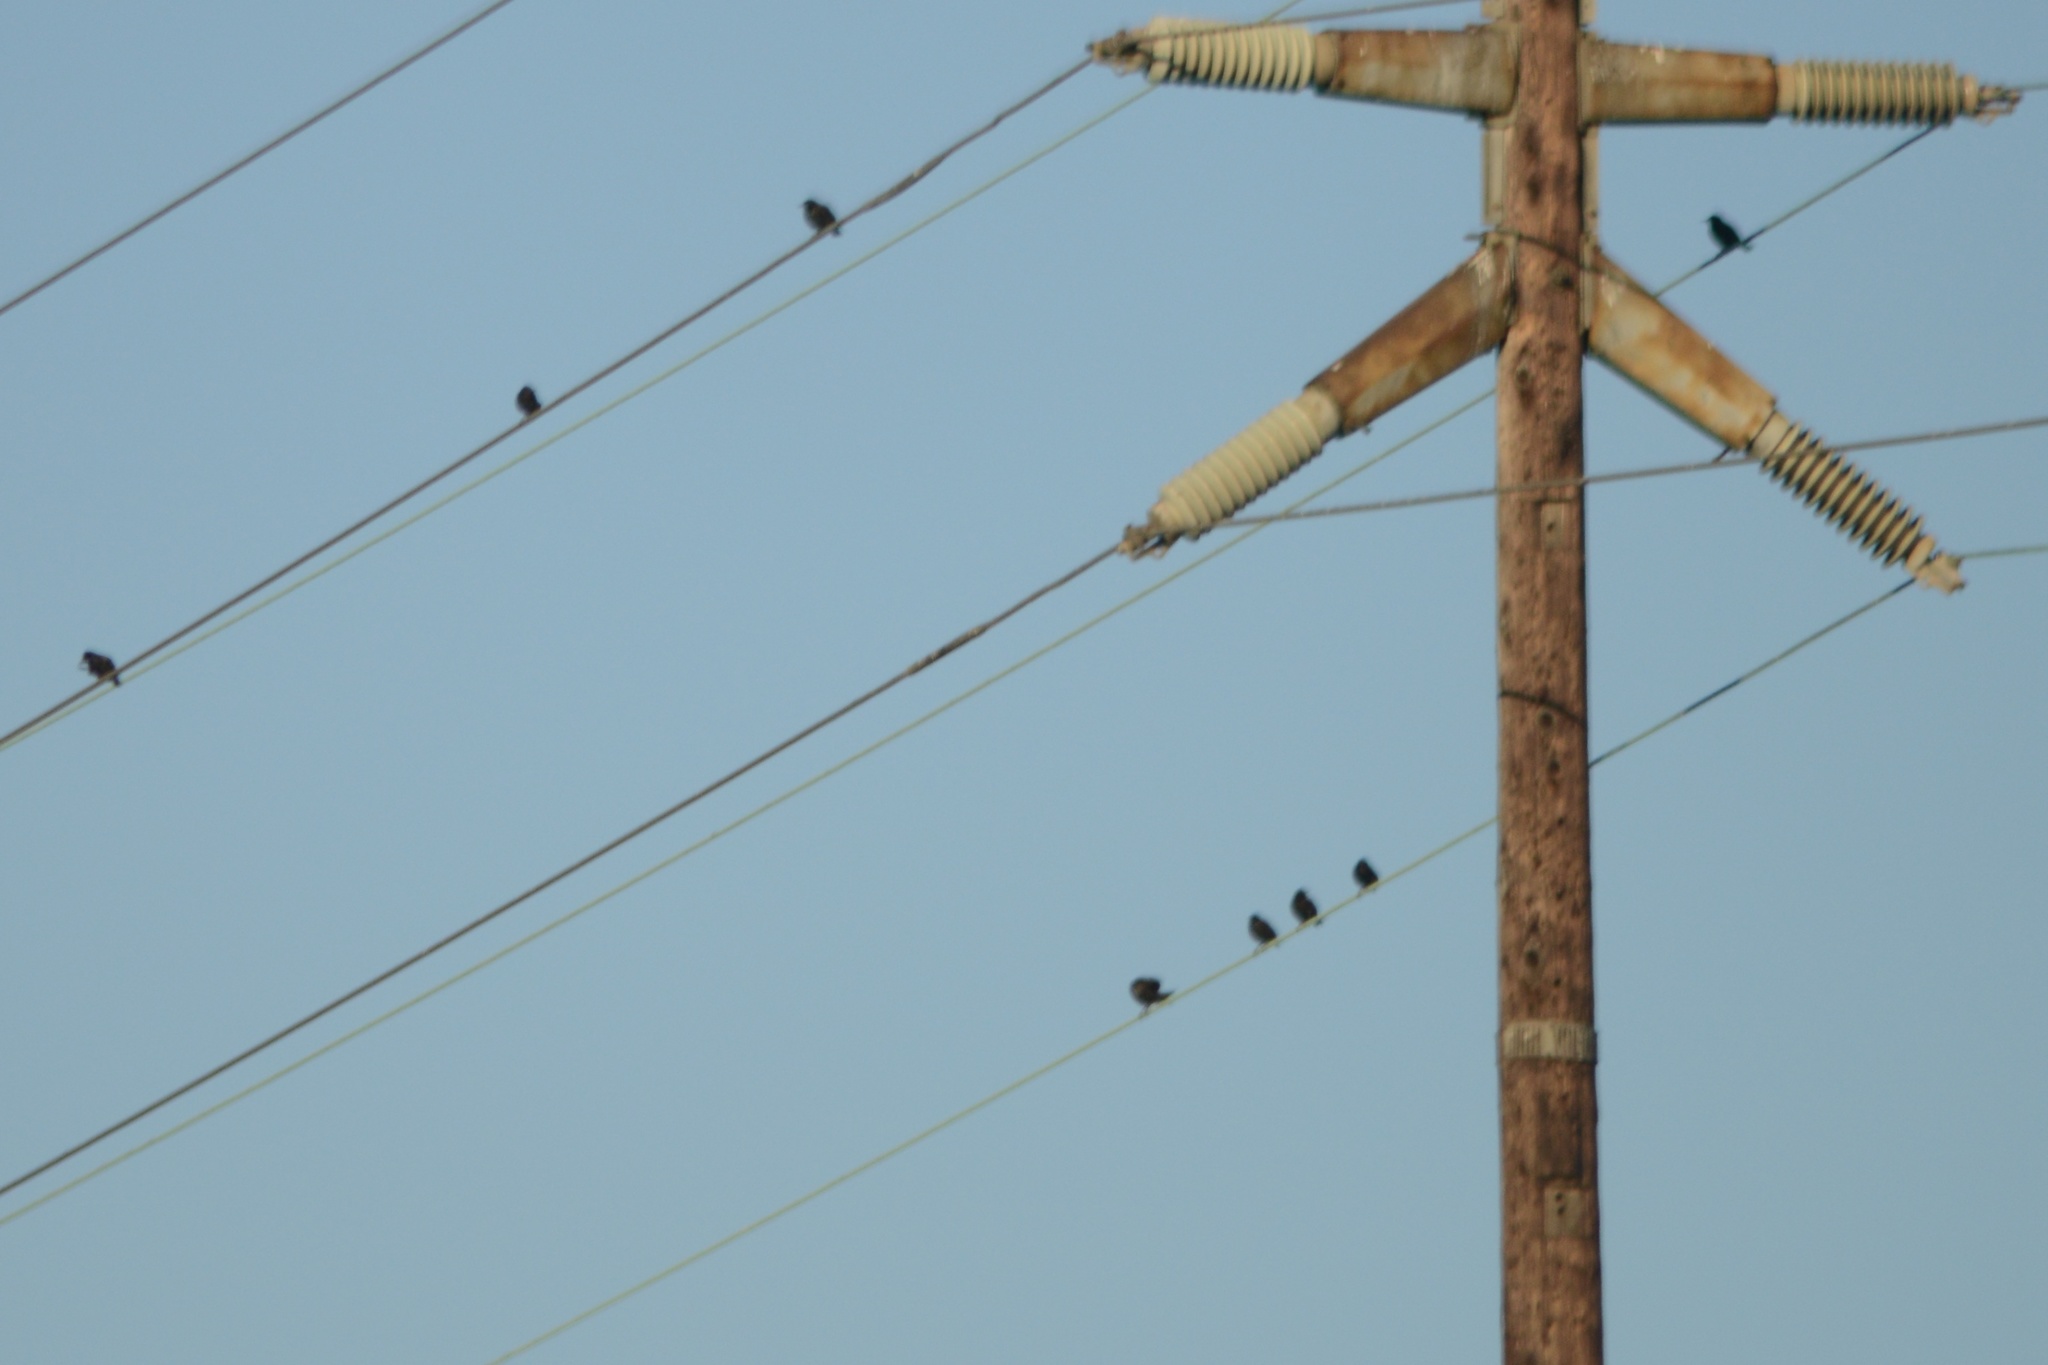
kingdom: Animalia
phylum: Chordata
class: Aves
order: Passeriformes
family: Sturnidae
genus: Sturnus
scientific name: Sturnus vulgaris
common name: Common starling
